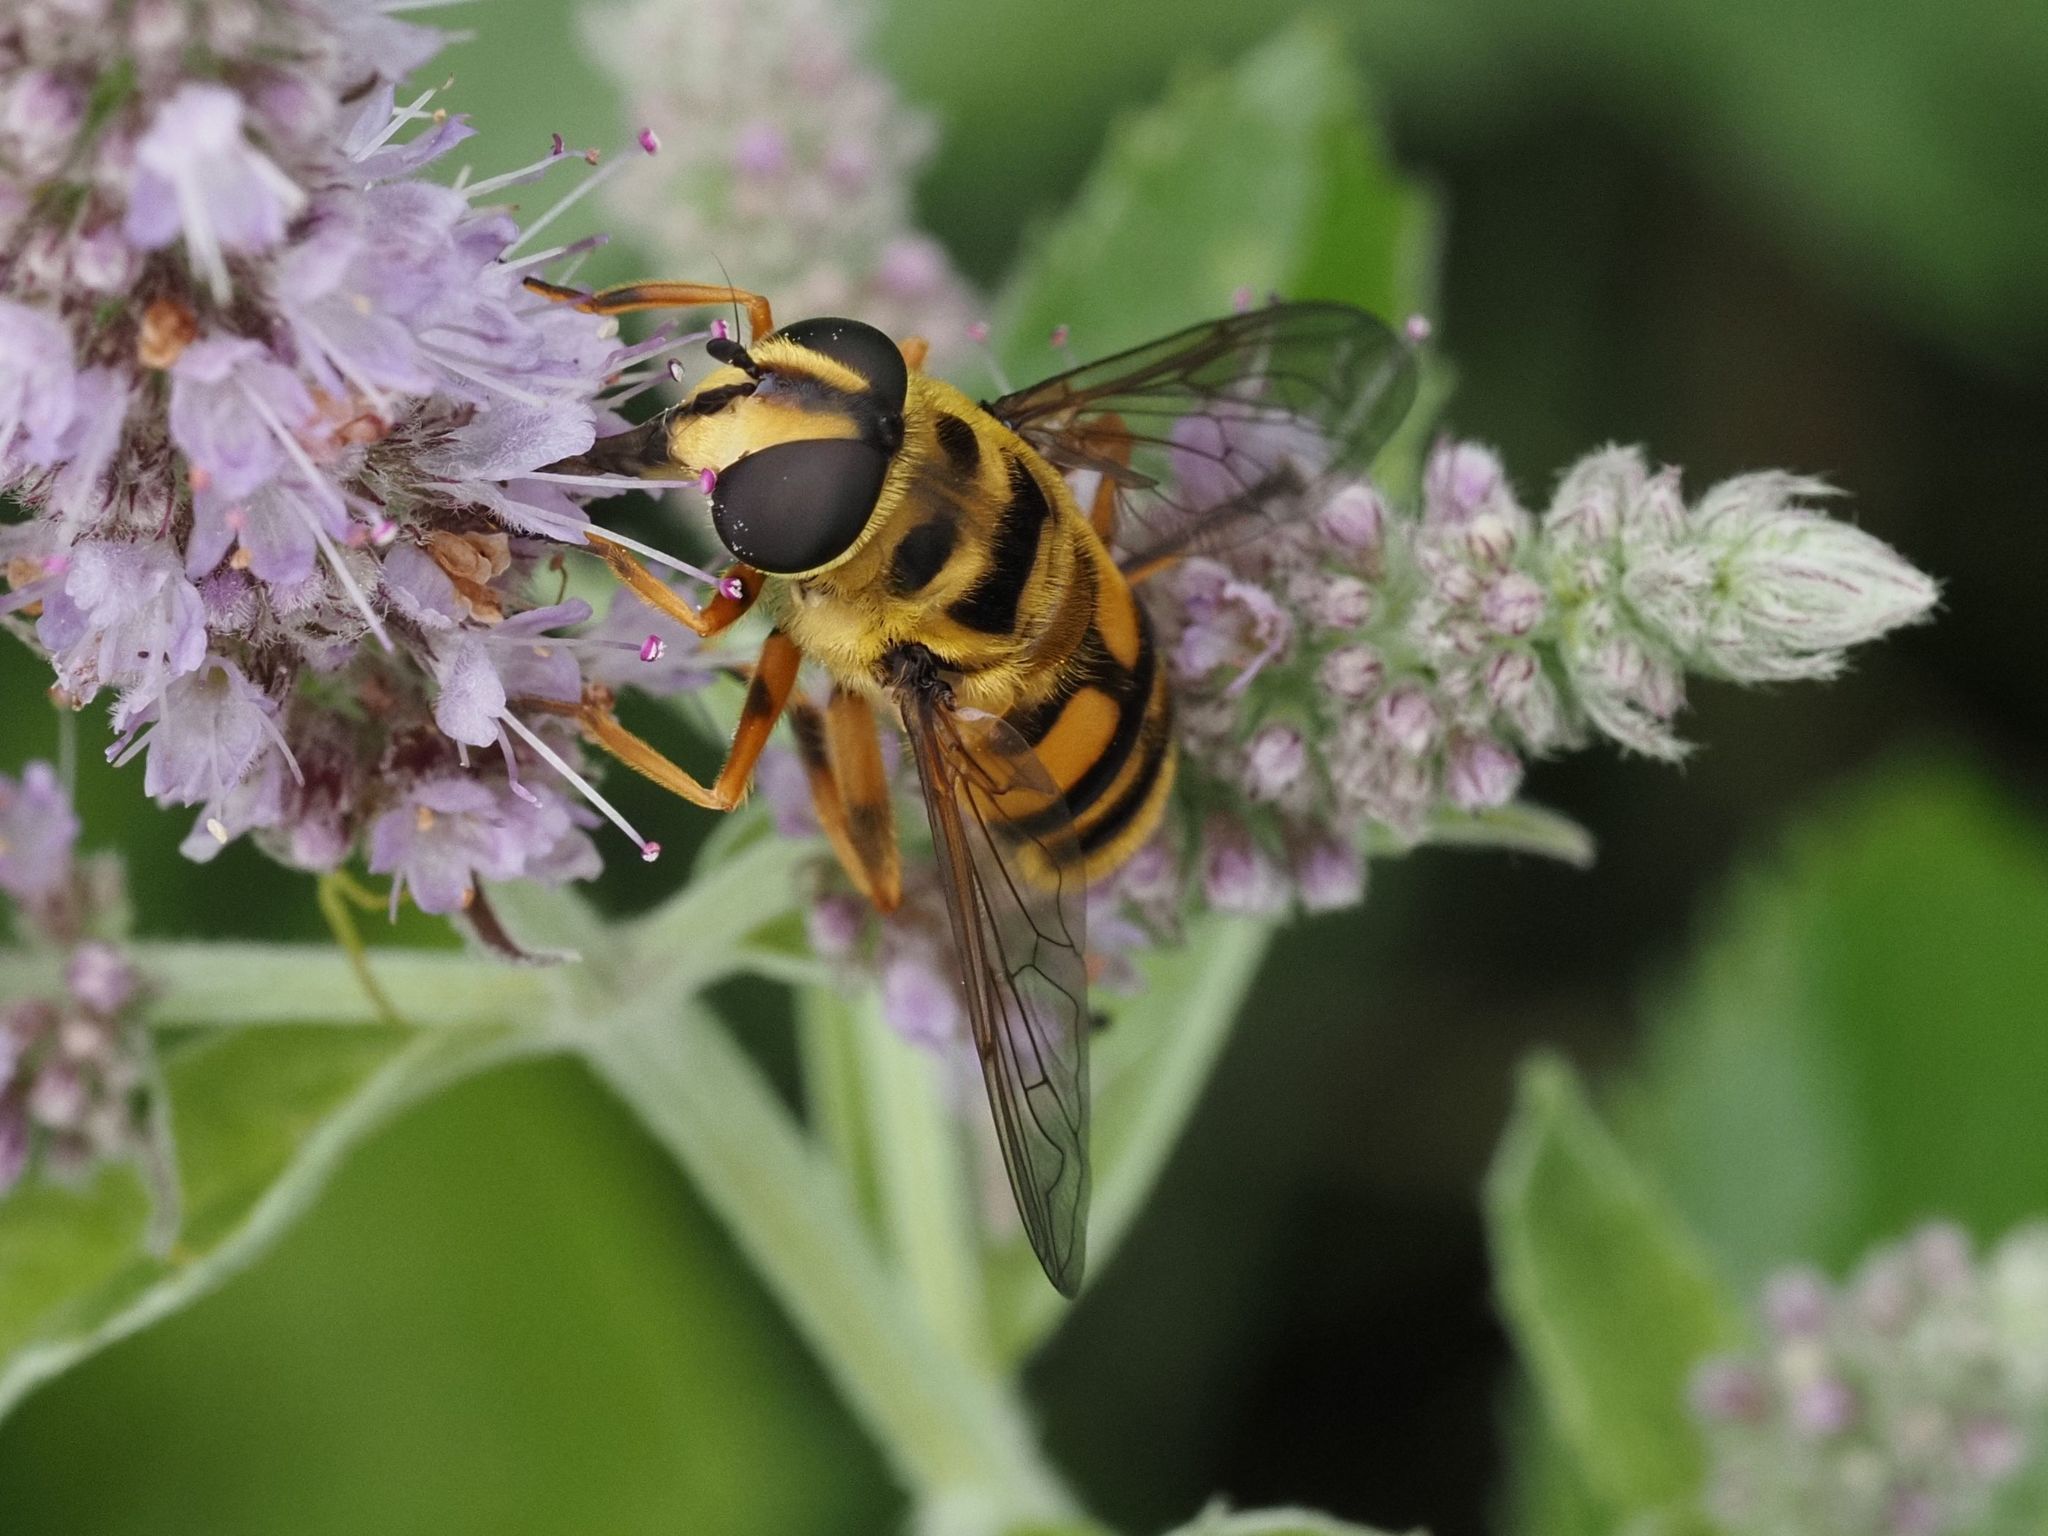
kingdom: Animalia
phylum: Arthropoda
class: Insecta
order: Diptera
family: Syrphidae
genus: Myathropa
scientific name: Myathropa florea
